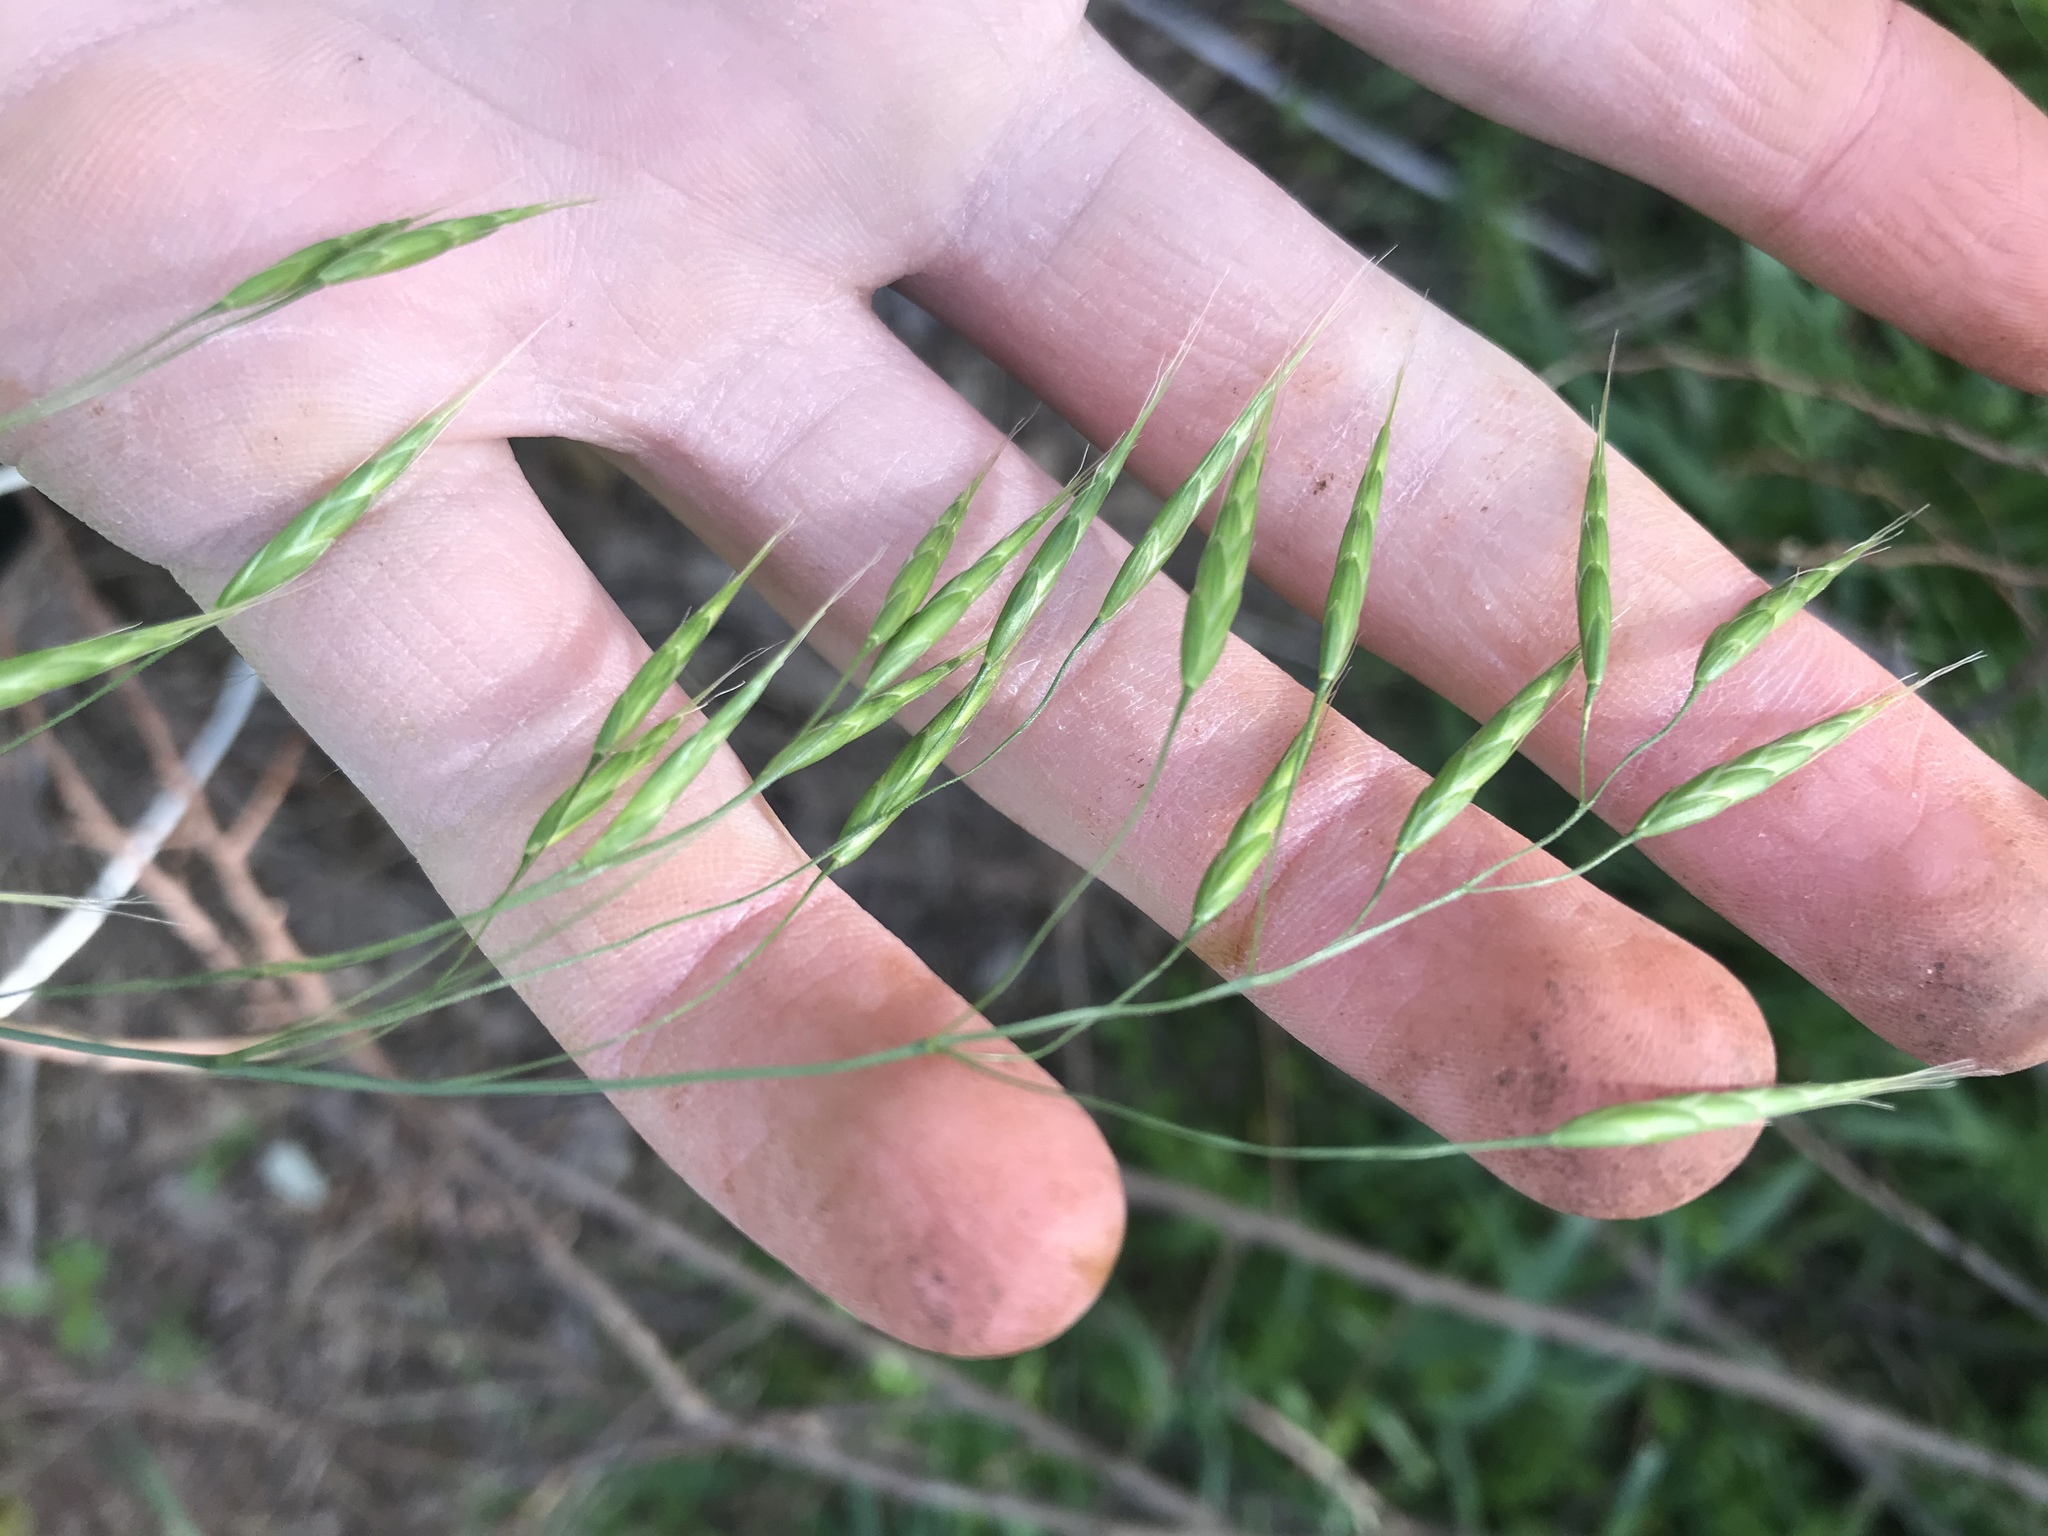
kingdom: Plantae
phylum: Tracheophyta
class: Liliopsida
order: Poales
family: Poaceae
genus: Bromus
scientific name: Bromus japonicus
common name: Japanese brome
